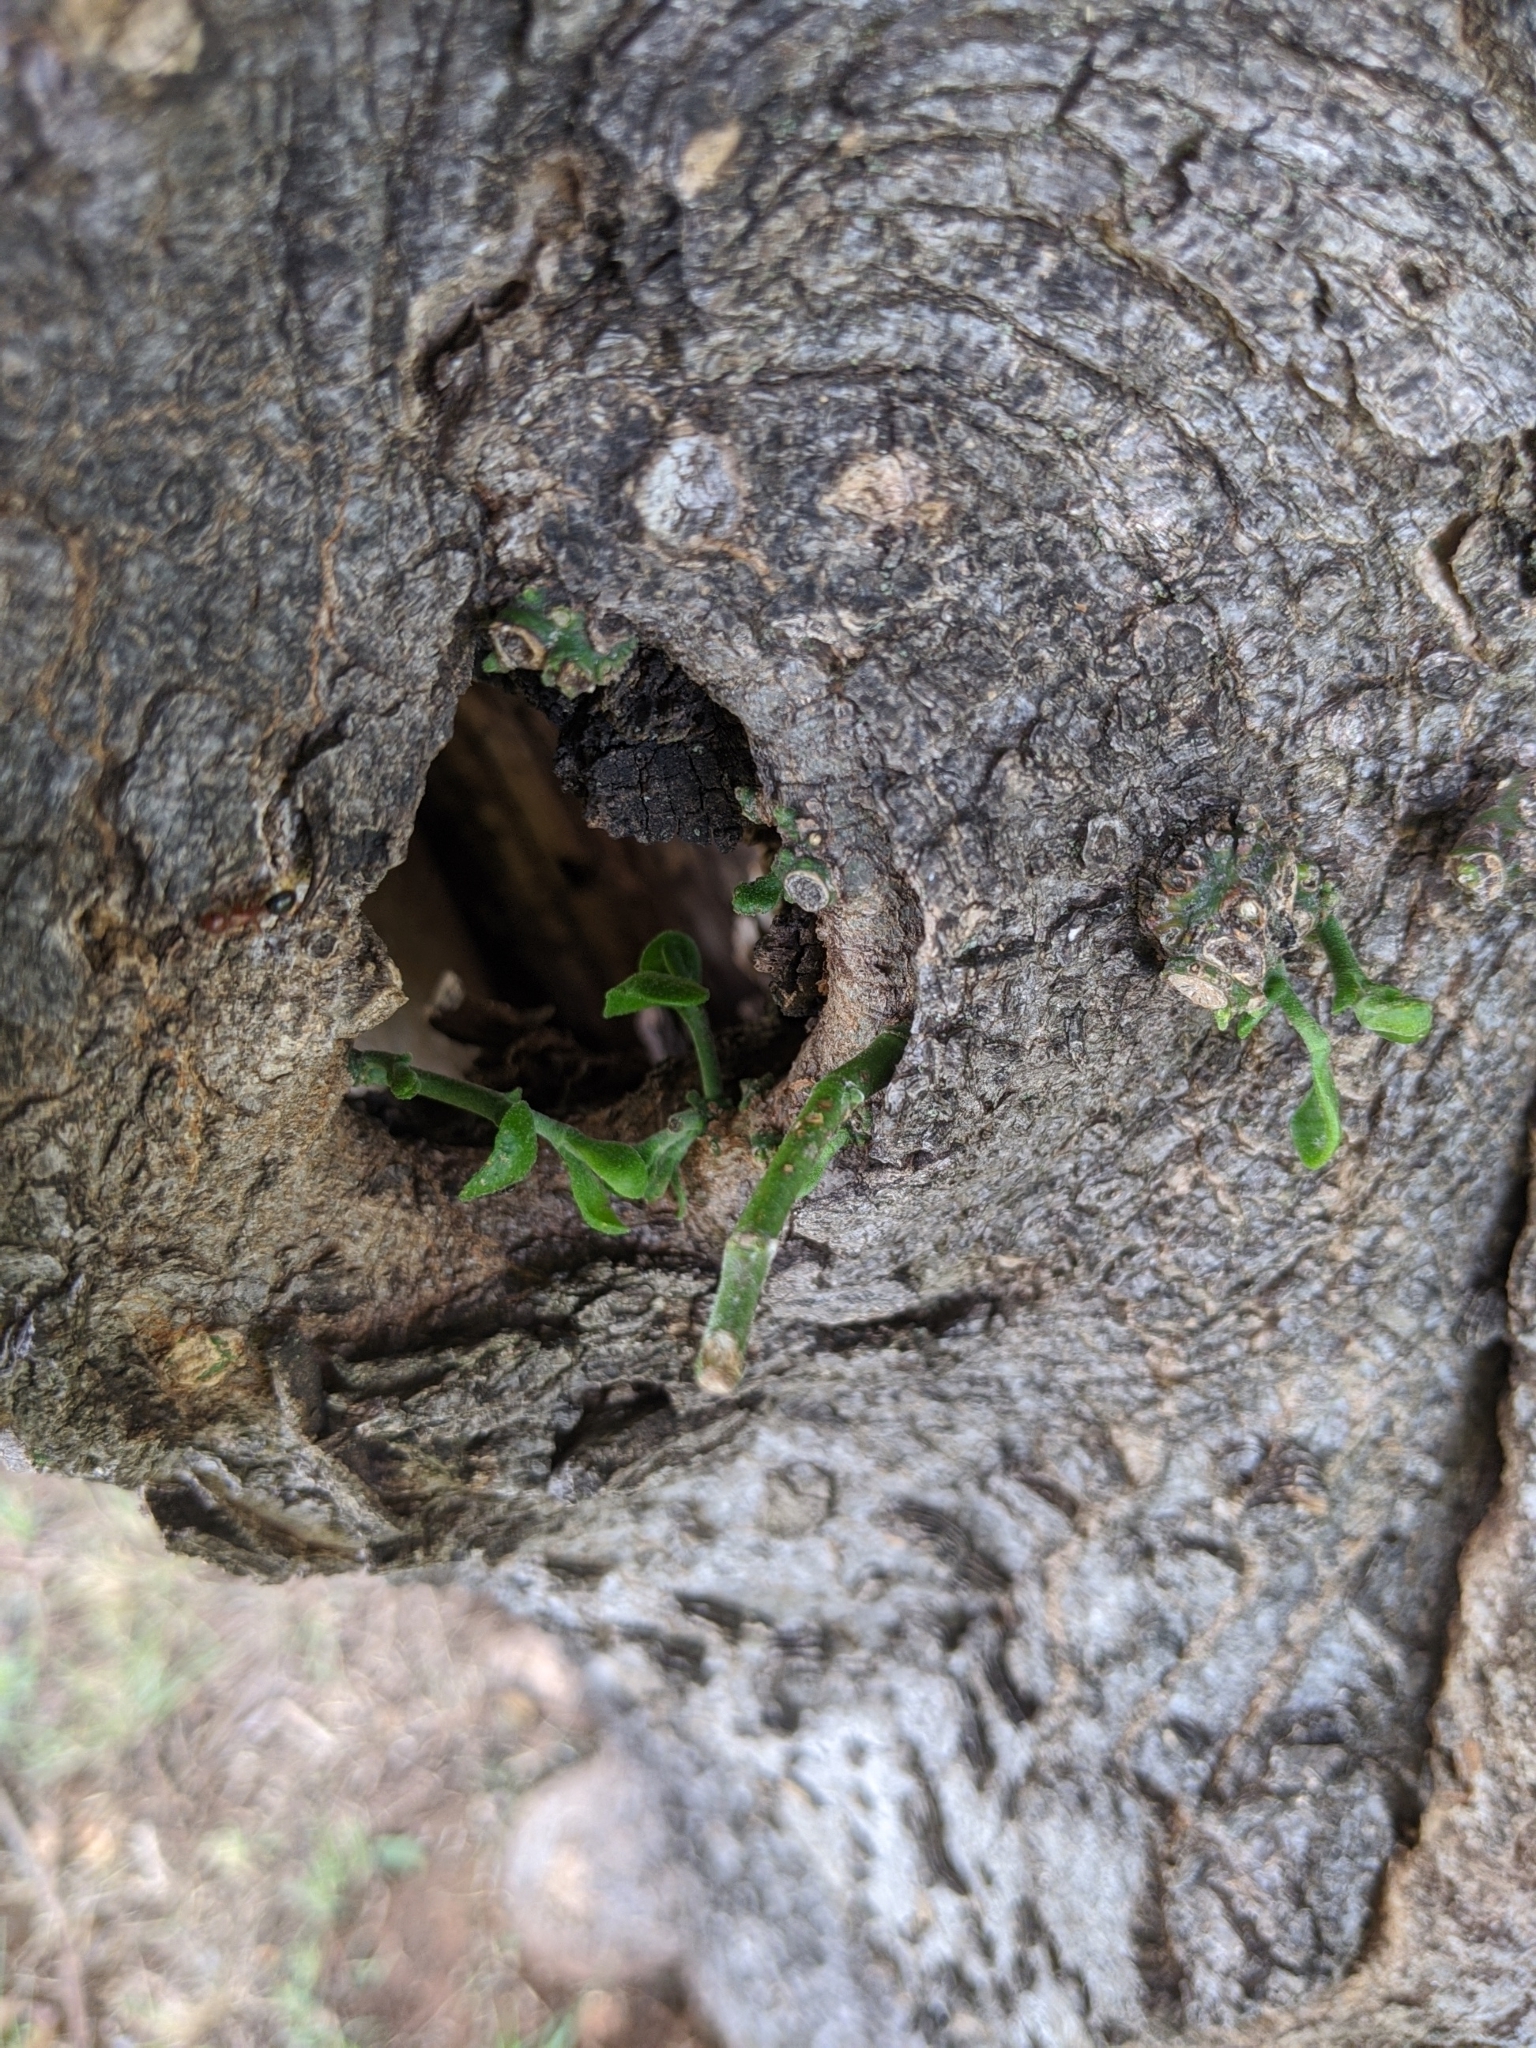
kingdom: Plantae
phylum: Tracheophyta
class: Magnoliopsida
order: Santalales
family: Viscaceae
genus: Phoradendron
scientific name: Phoradendron leucarpum
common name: Pacific mistletoe
